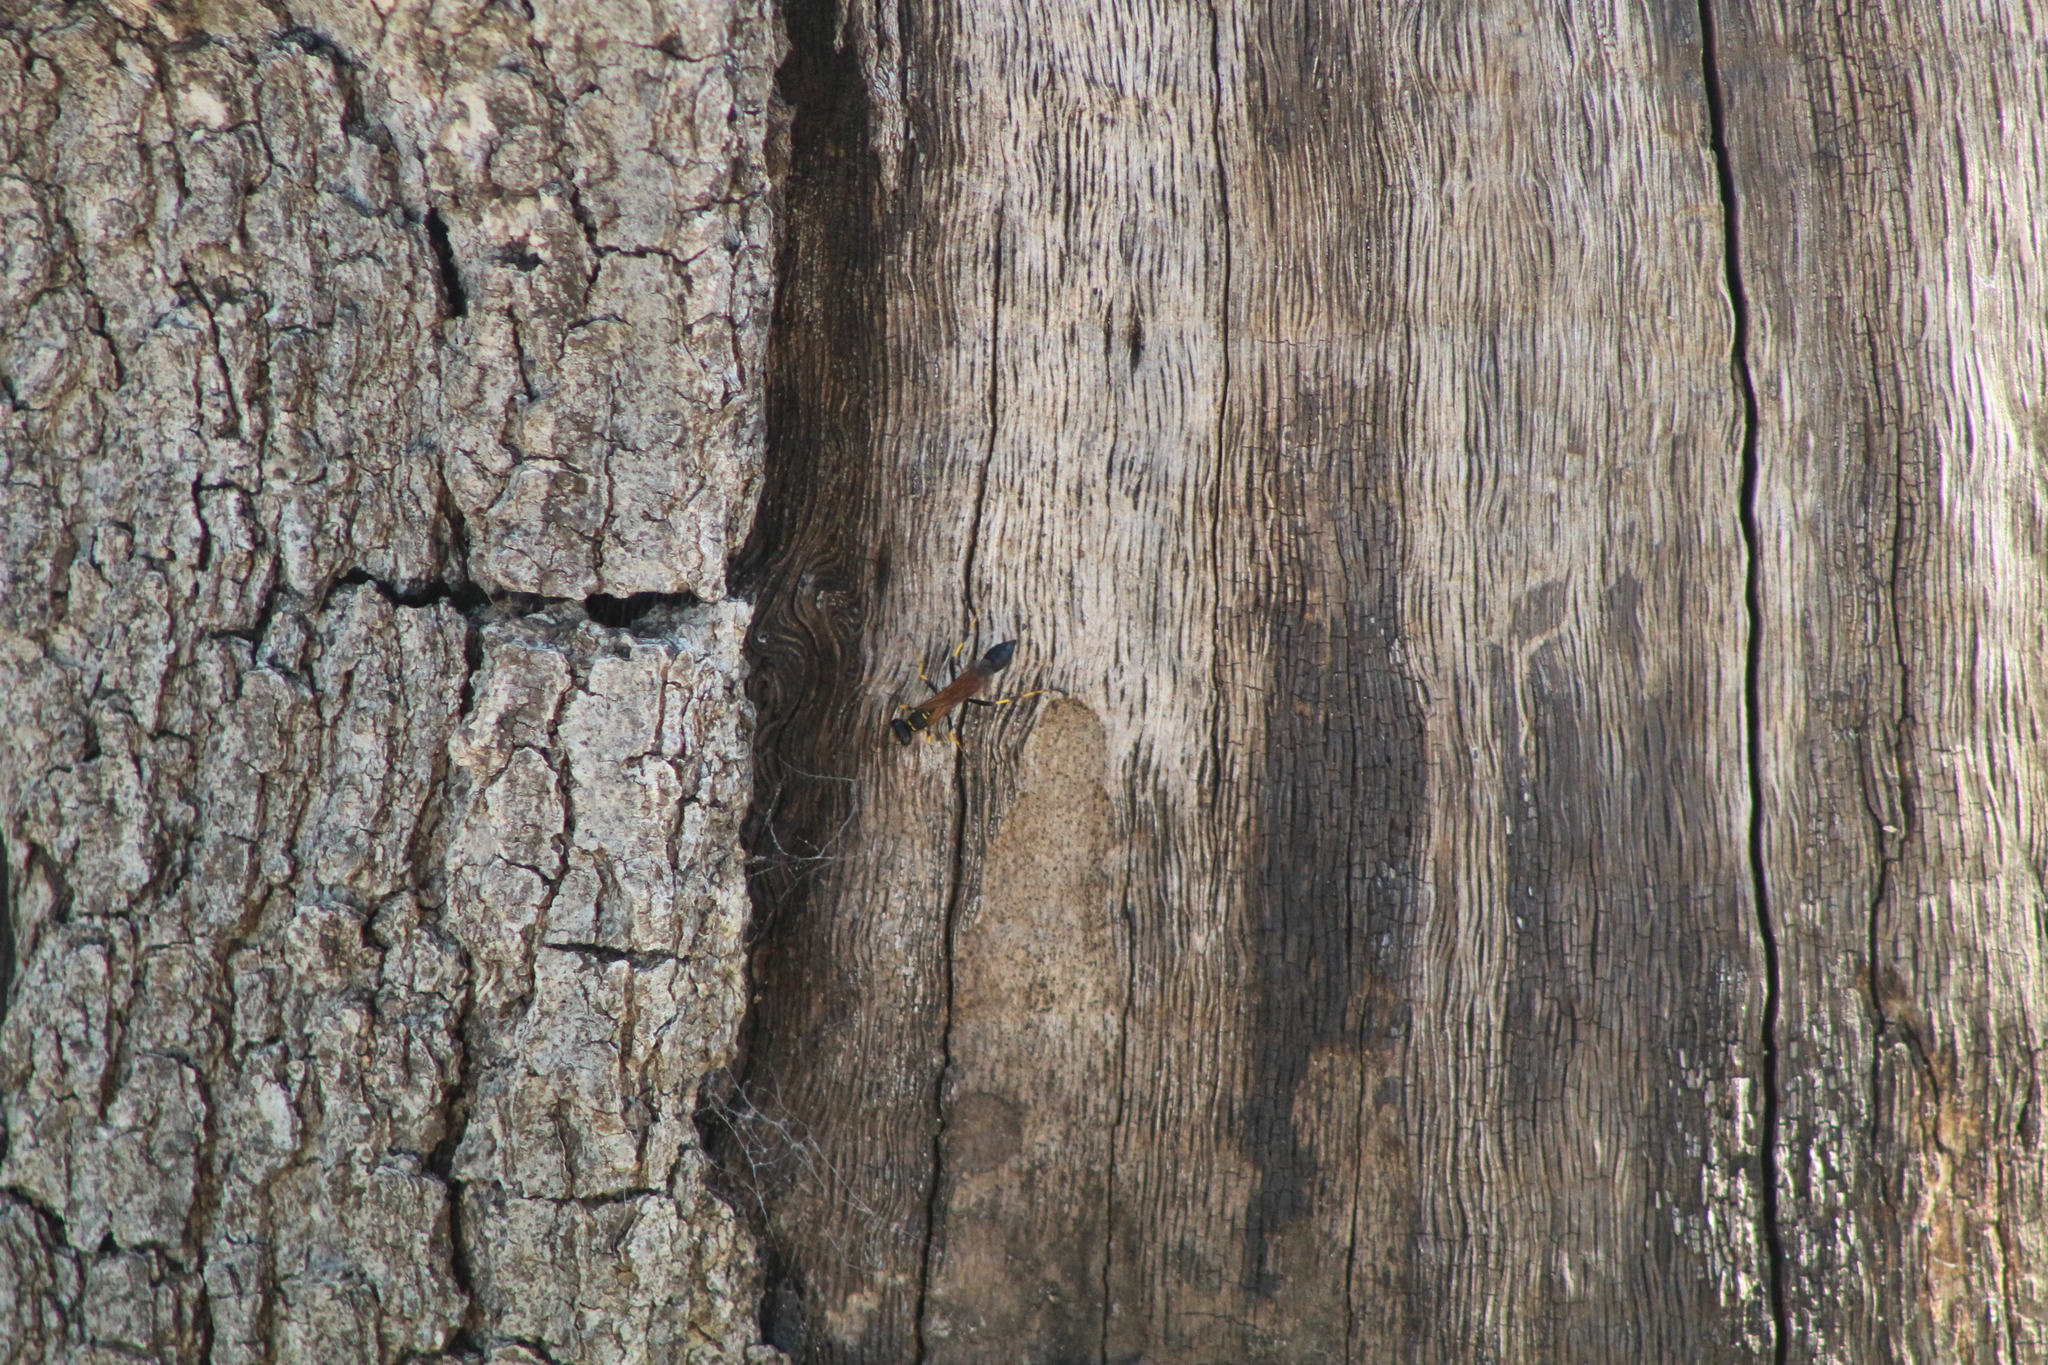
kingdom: Animalia
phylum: Arthropoda
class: Insecta
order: Hymenoptera
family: Sphecidae
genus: Sceliphron
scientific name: Sceliphron caementarium
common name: Mud dauber
